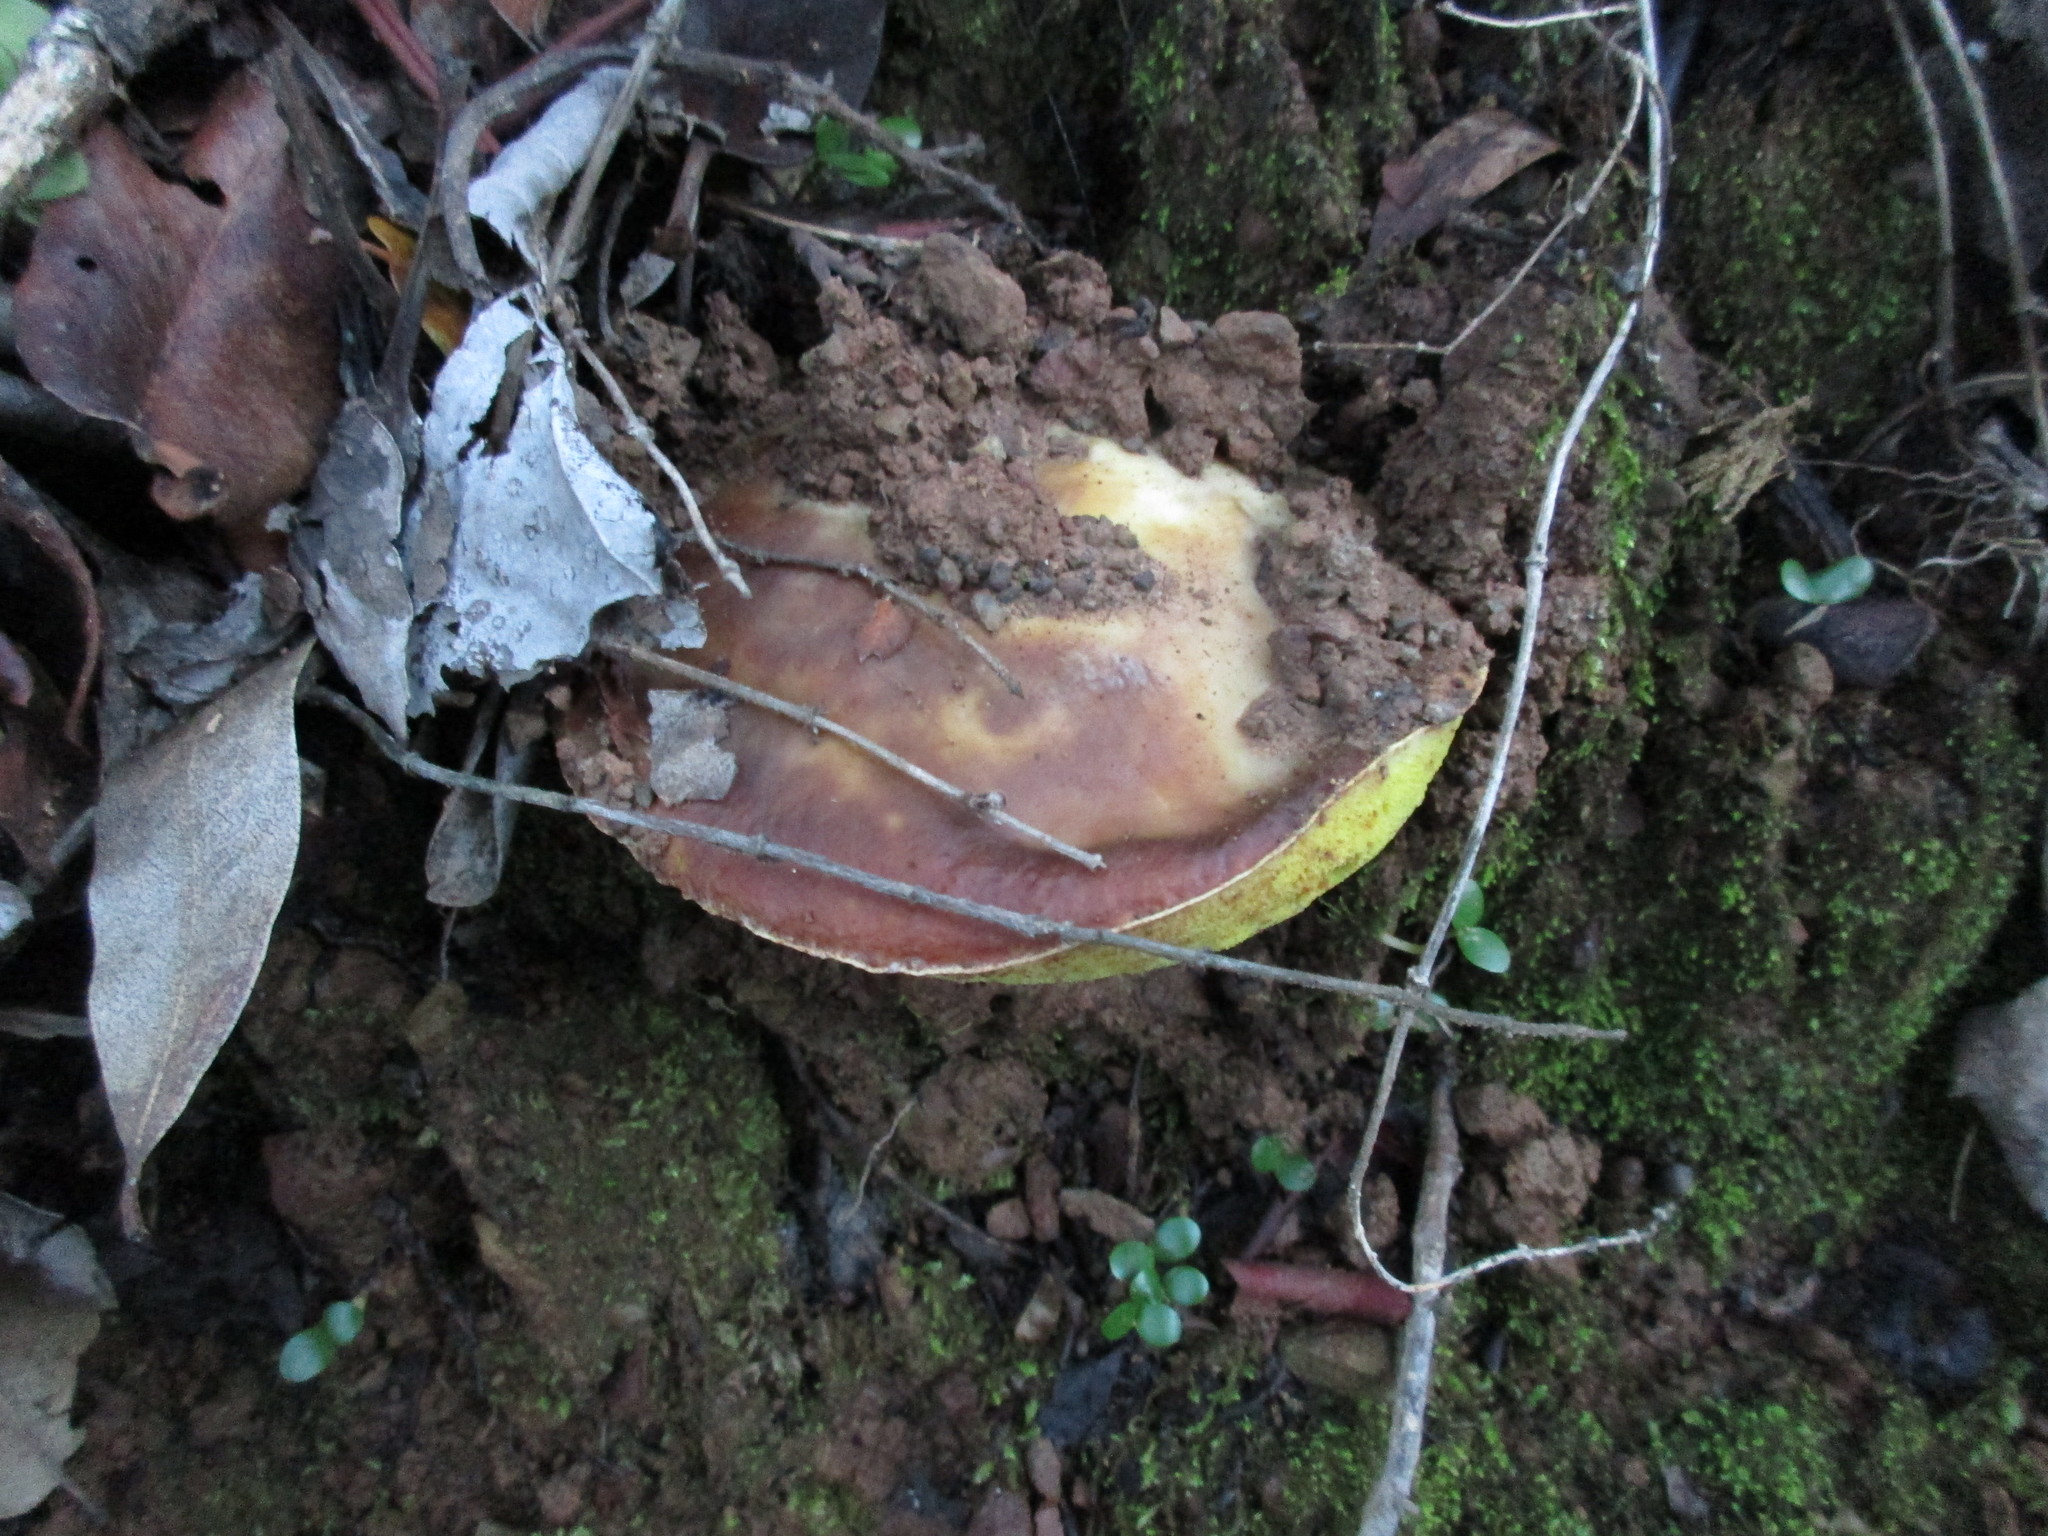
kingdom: Fungi
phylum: Basidiomycota
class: Agaricomycetes
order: Boletales
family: Boletaceae
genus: Boletus
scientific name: Boletus regineus
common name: Queen bolete
